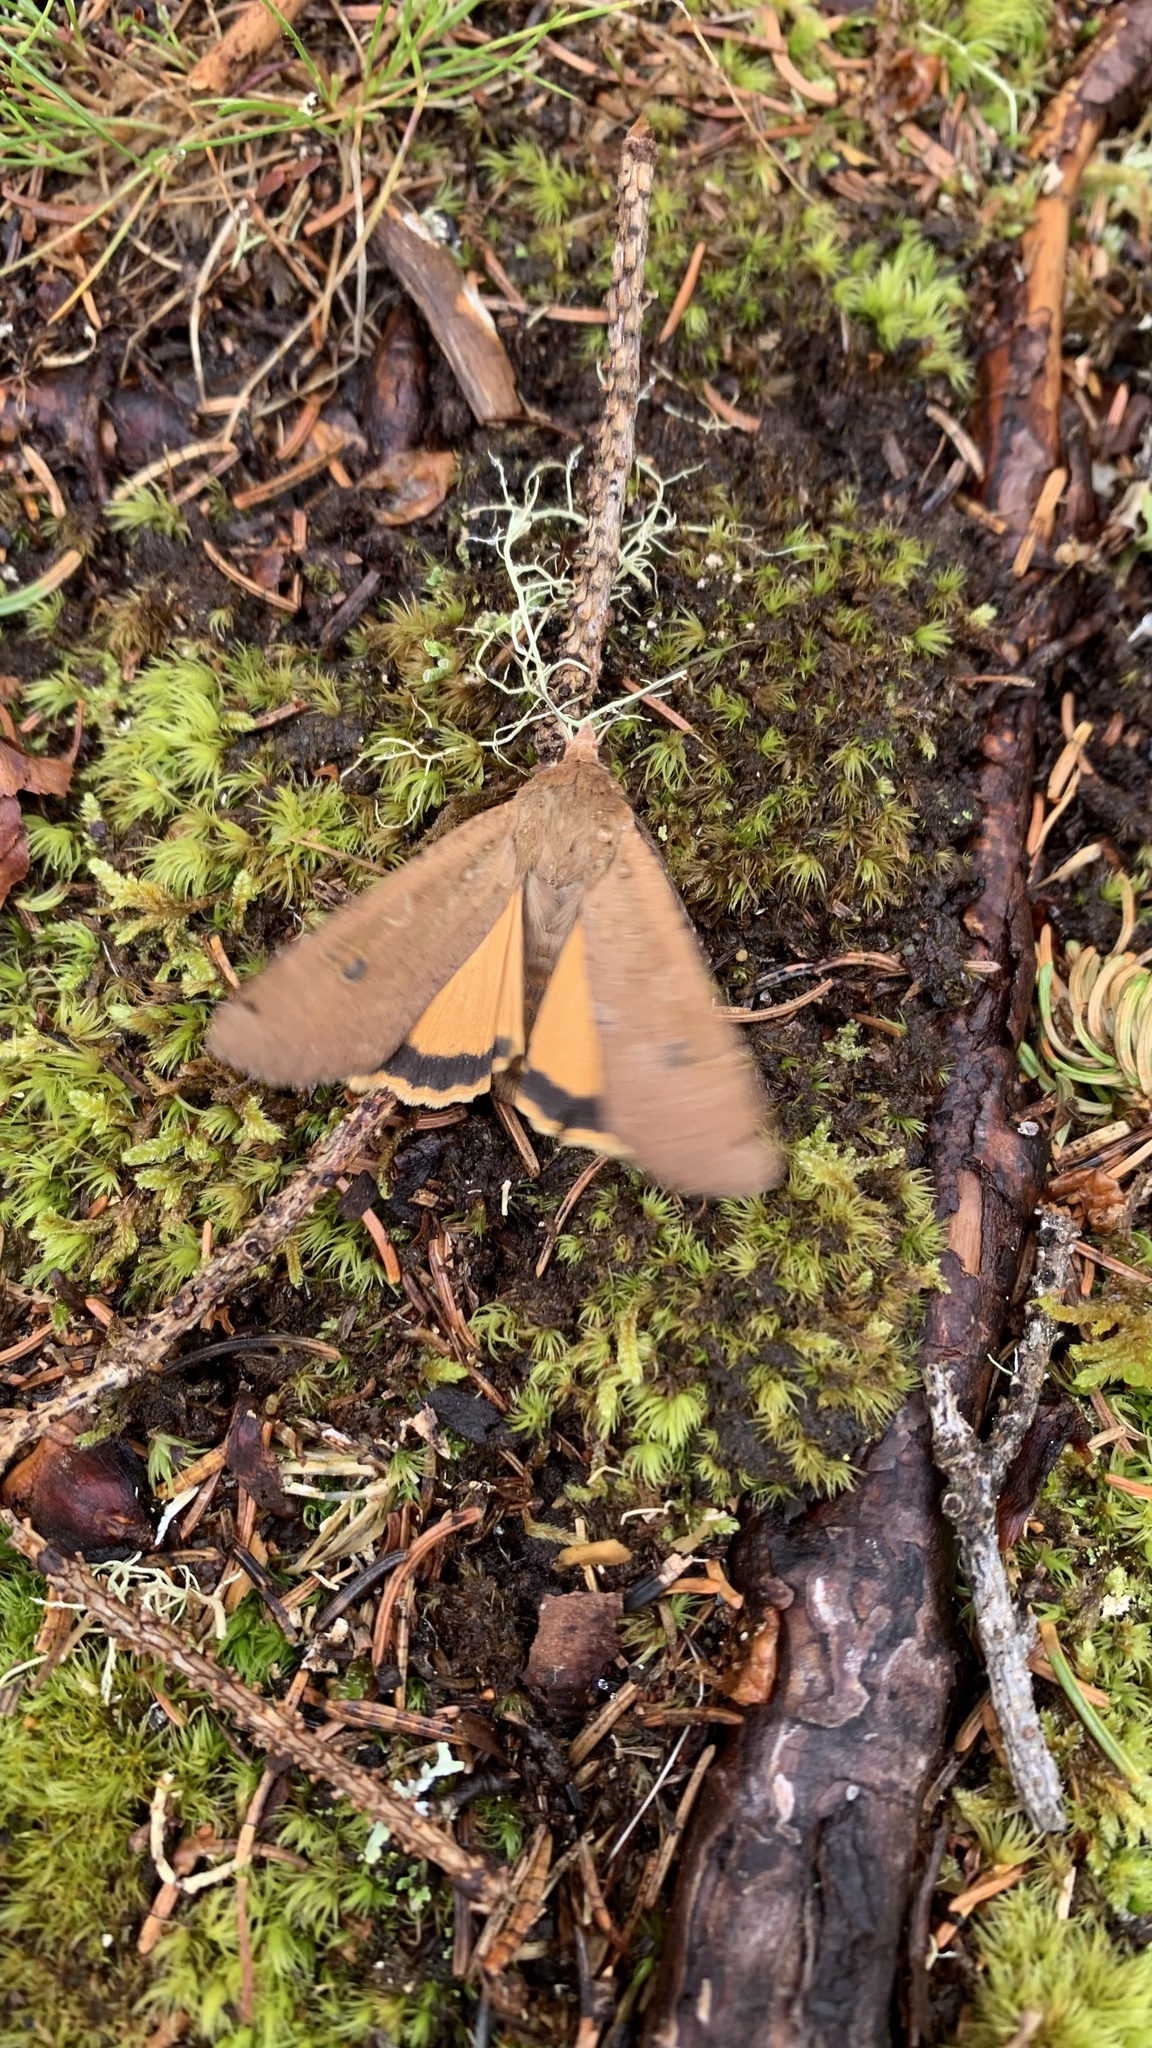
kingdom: Animalia
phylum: Arthropoda
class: Insecta
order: Lepidoptera
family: Noctuidae
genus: Noctua
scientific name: Noctua pronuba
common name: Large yellow underwing
